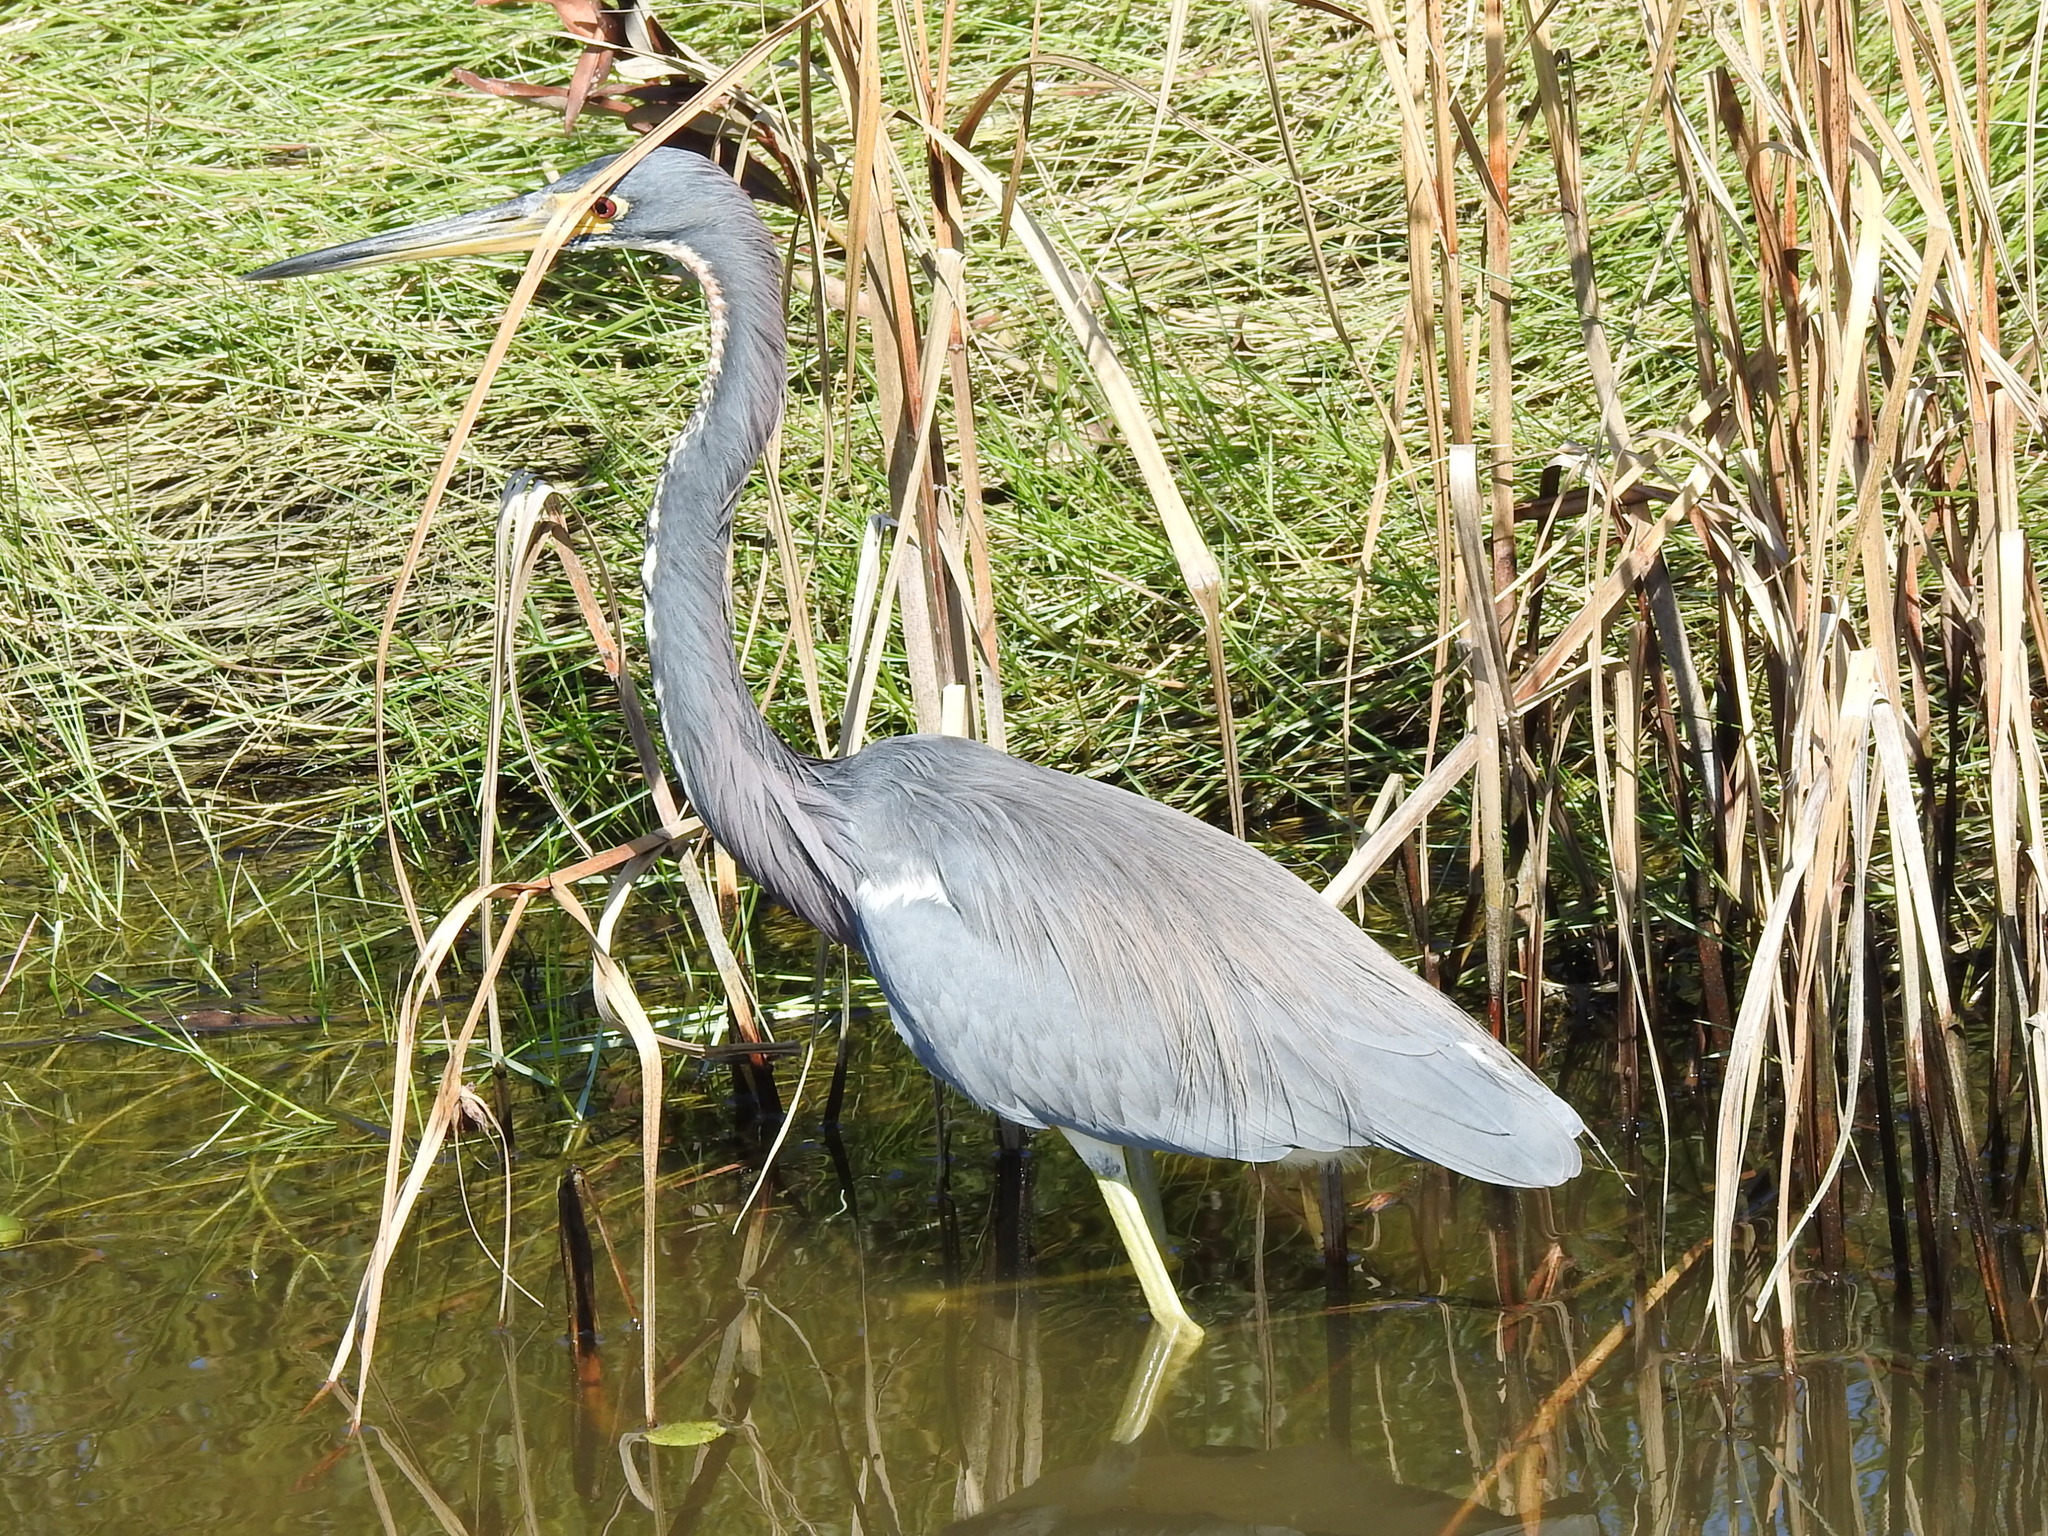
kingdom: Animalia
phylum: Chordata
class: Aves
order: Pelecaniformes
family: Ardeidae
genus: Egretta
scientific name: Egretta tricolor
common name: Tricolored heron
